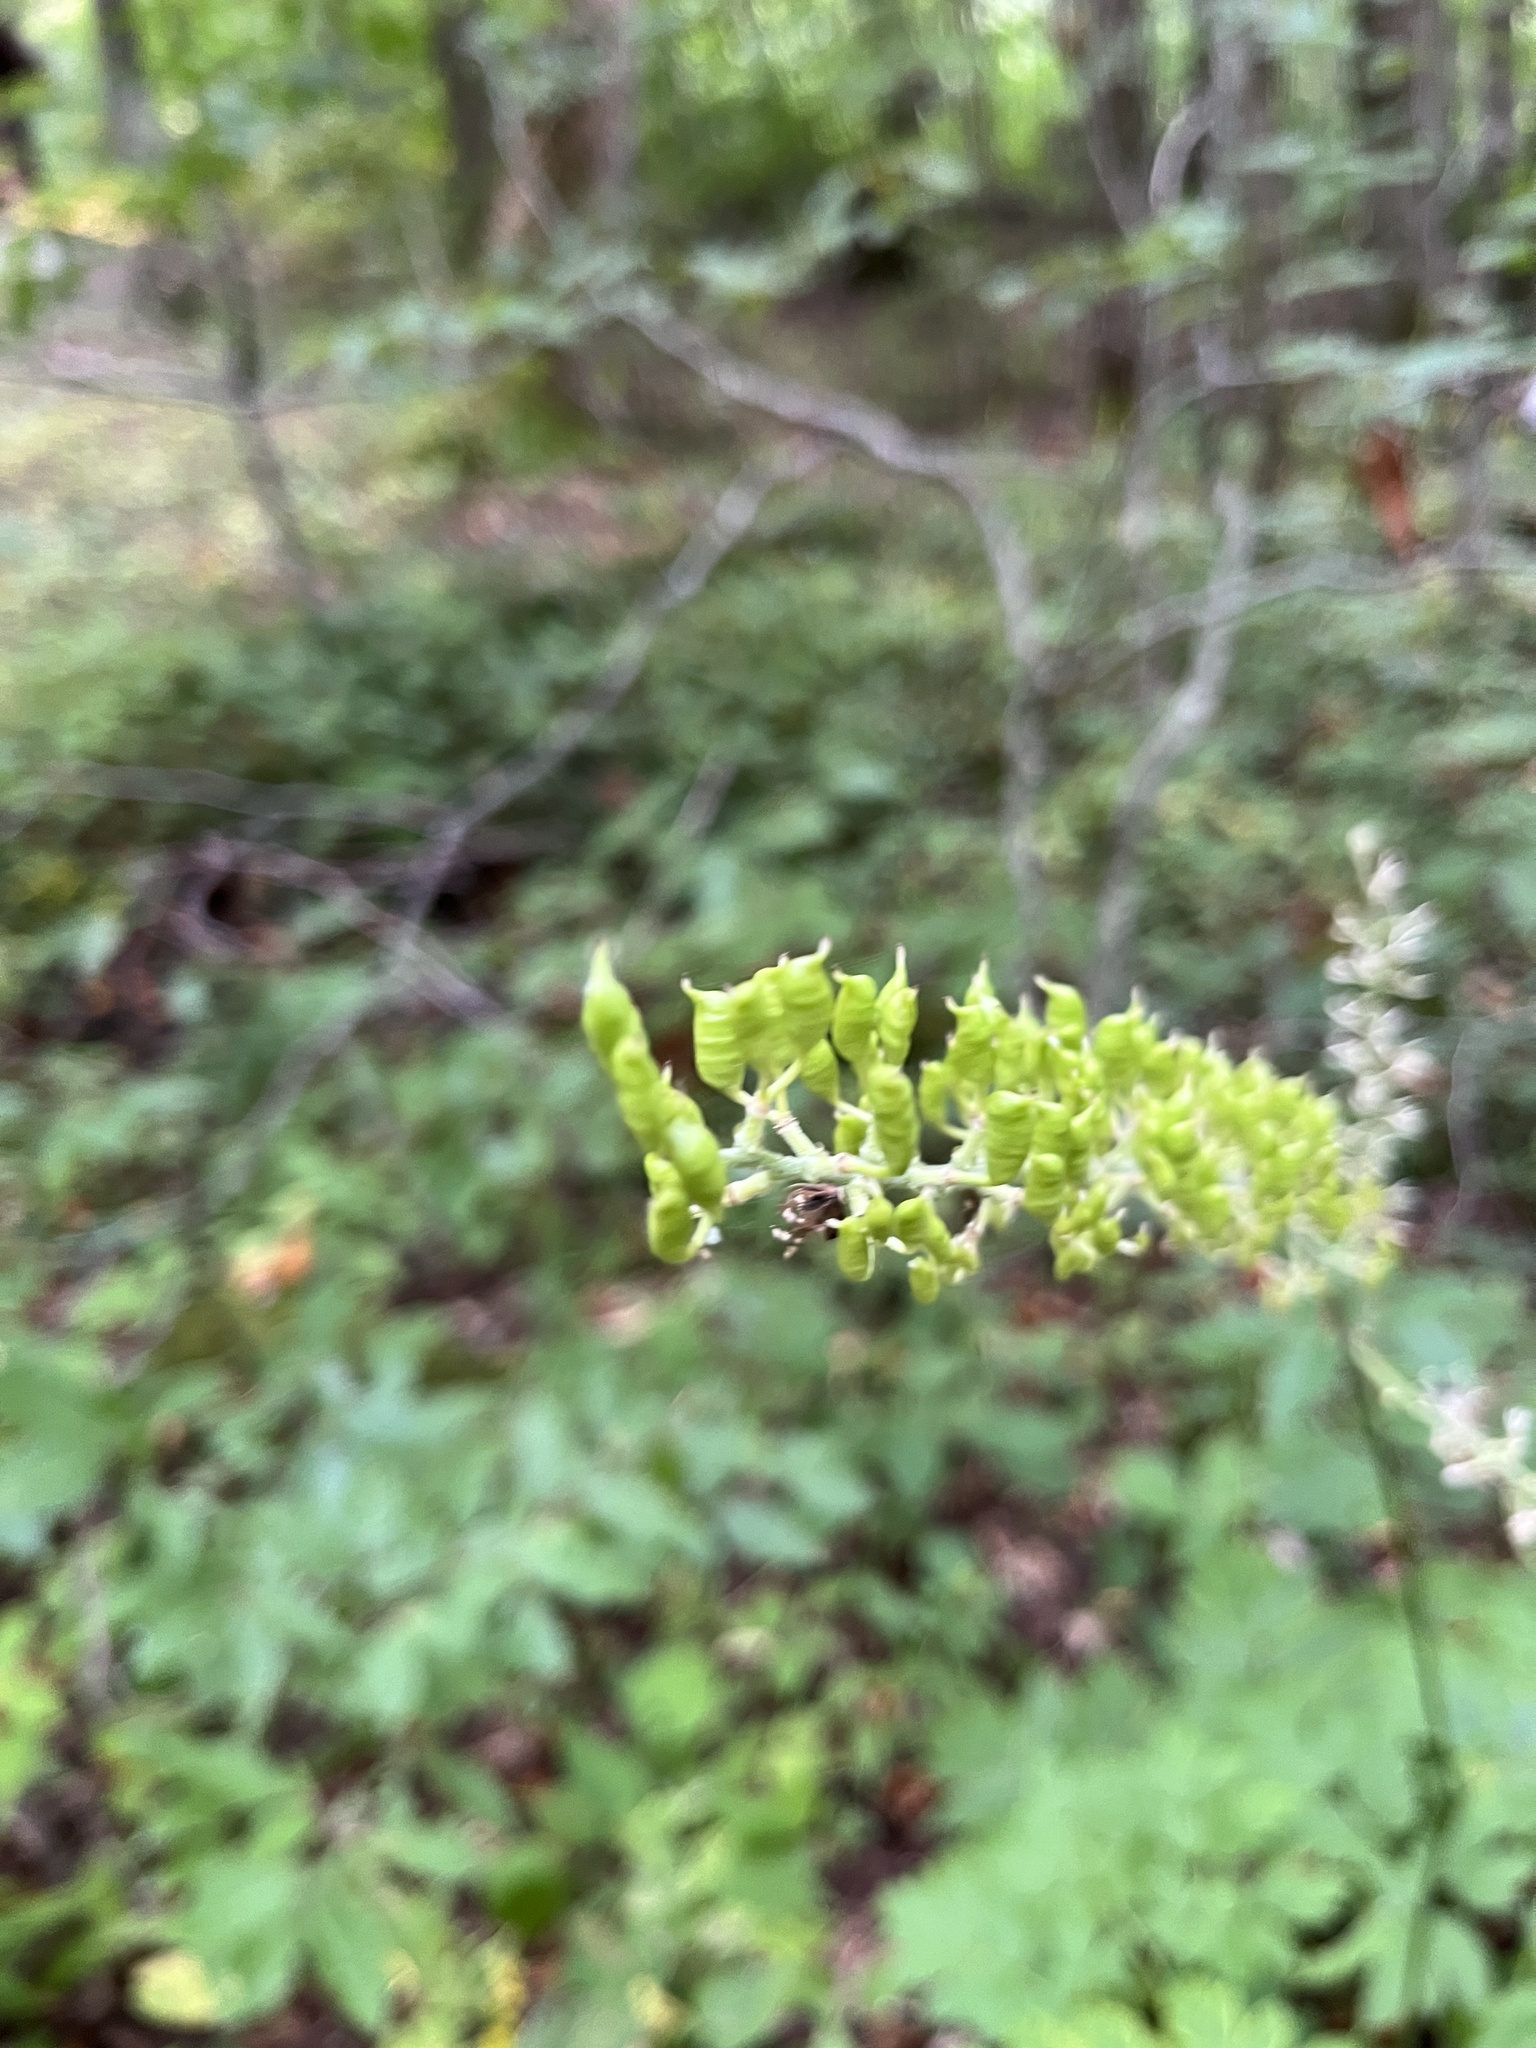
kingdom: Plantae
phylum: Tracheophyta
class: Magnoliopsida
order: Ranunculales
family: Ranunculaceae
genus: Actaea
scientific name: Actaea podocarpa
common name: American bugbane
